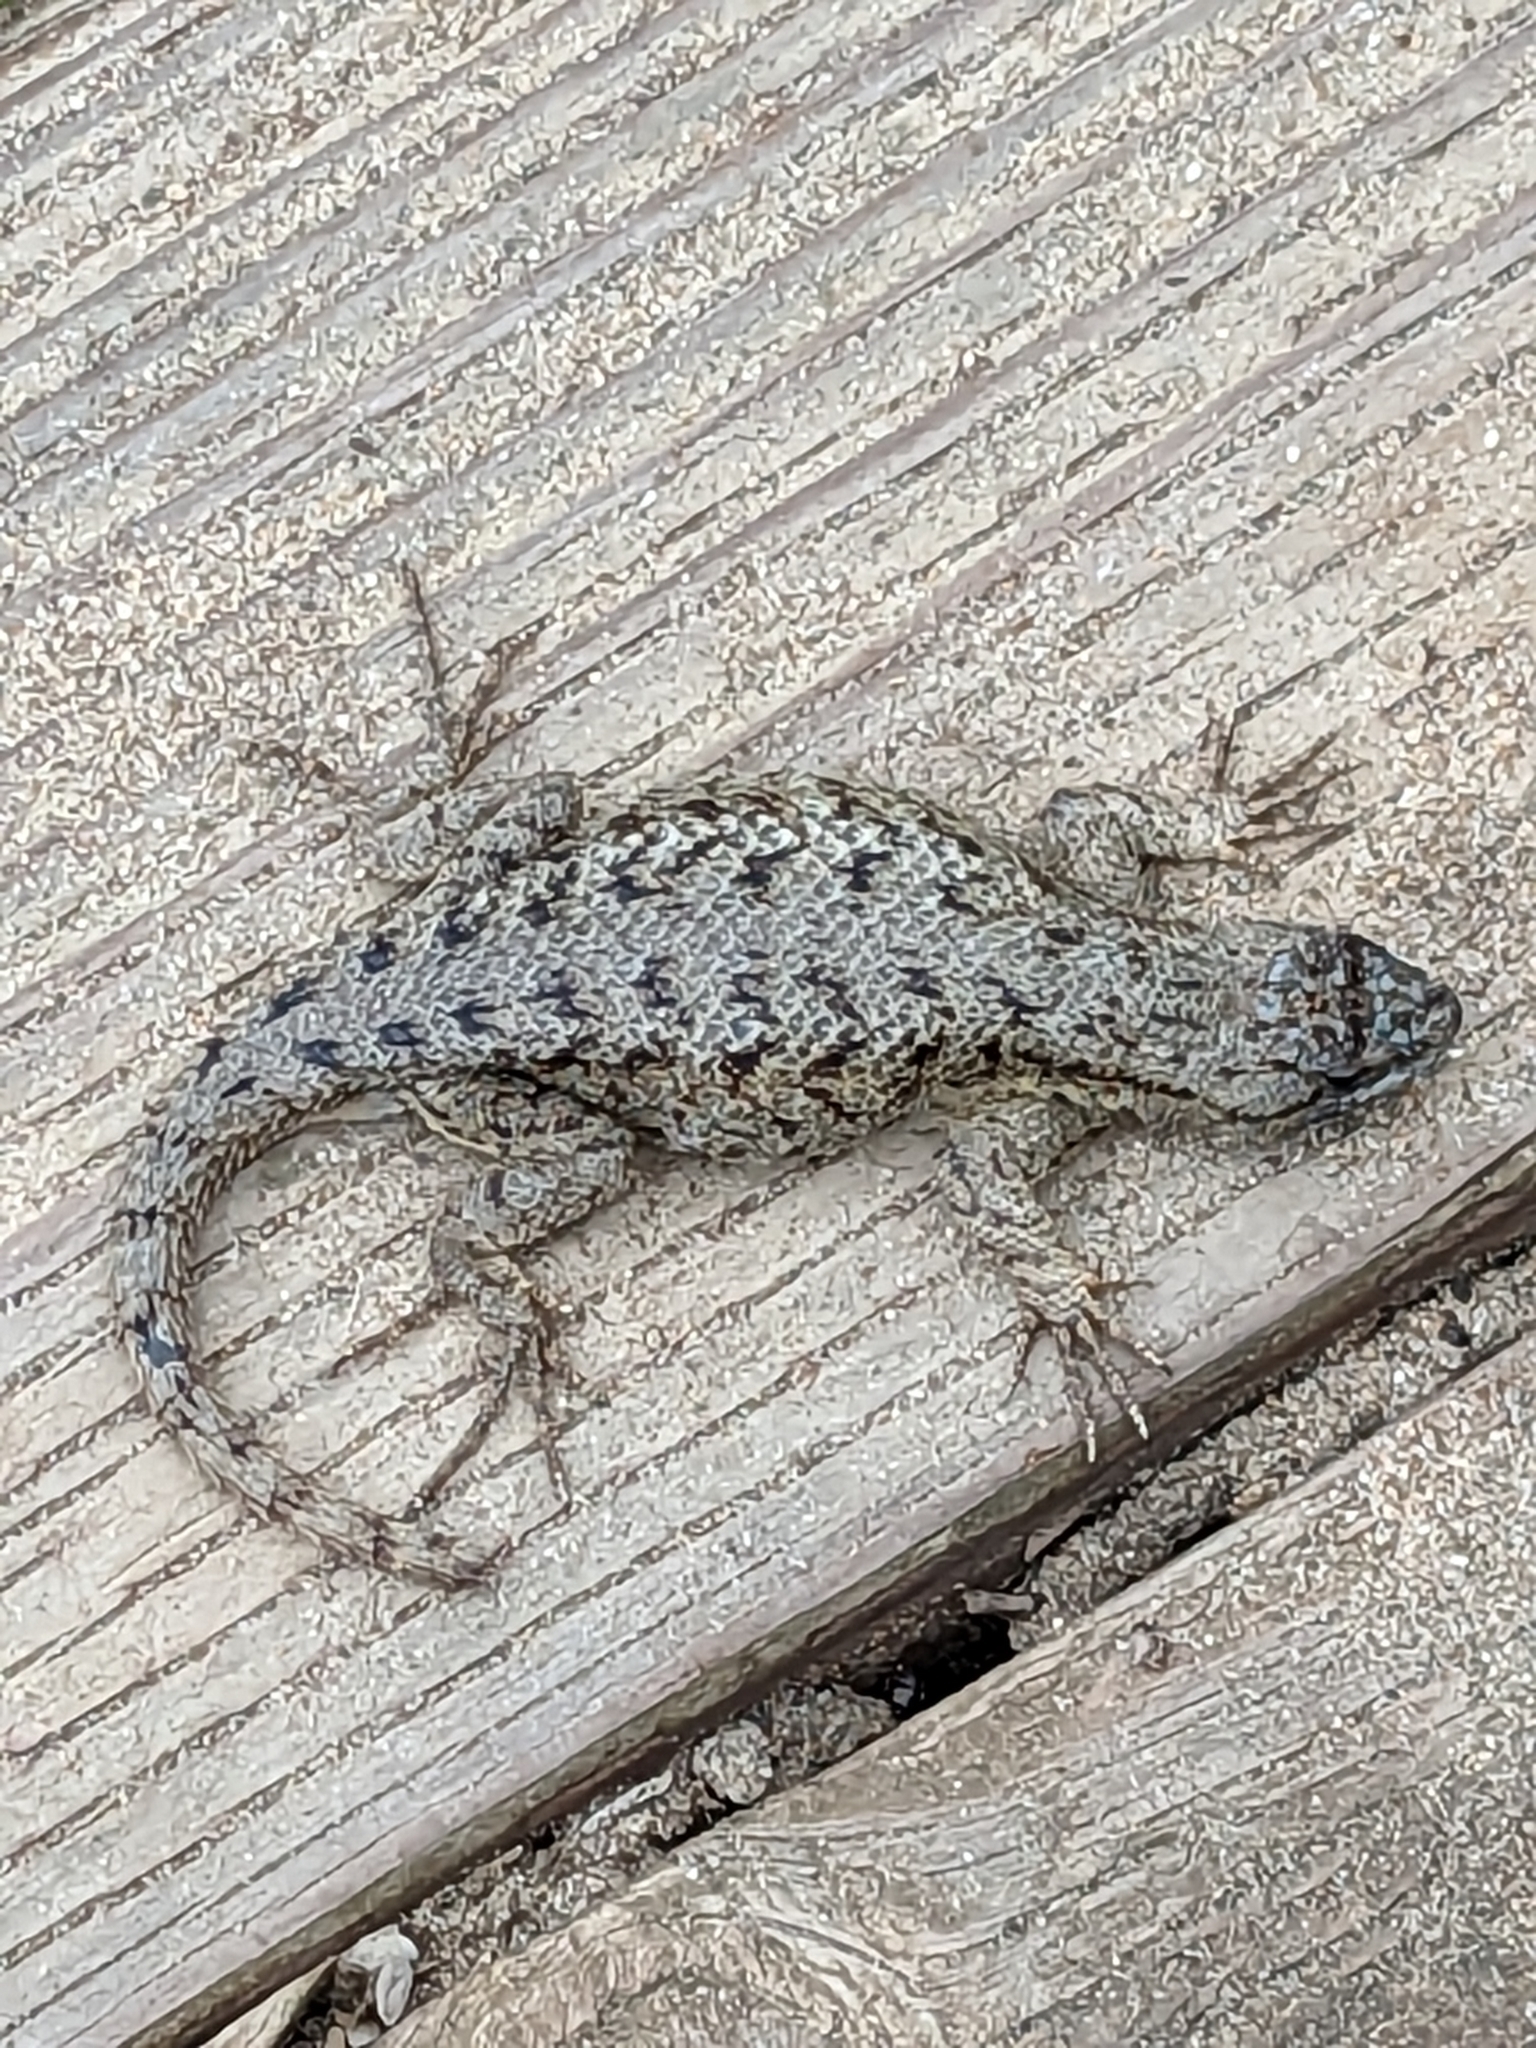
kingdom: Animalia
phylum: Chordata
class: Squamata
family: Phrynosomatidae
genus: Sceloporus
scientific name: Sceloporus occidentalis
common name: Western fence lizard
